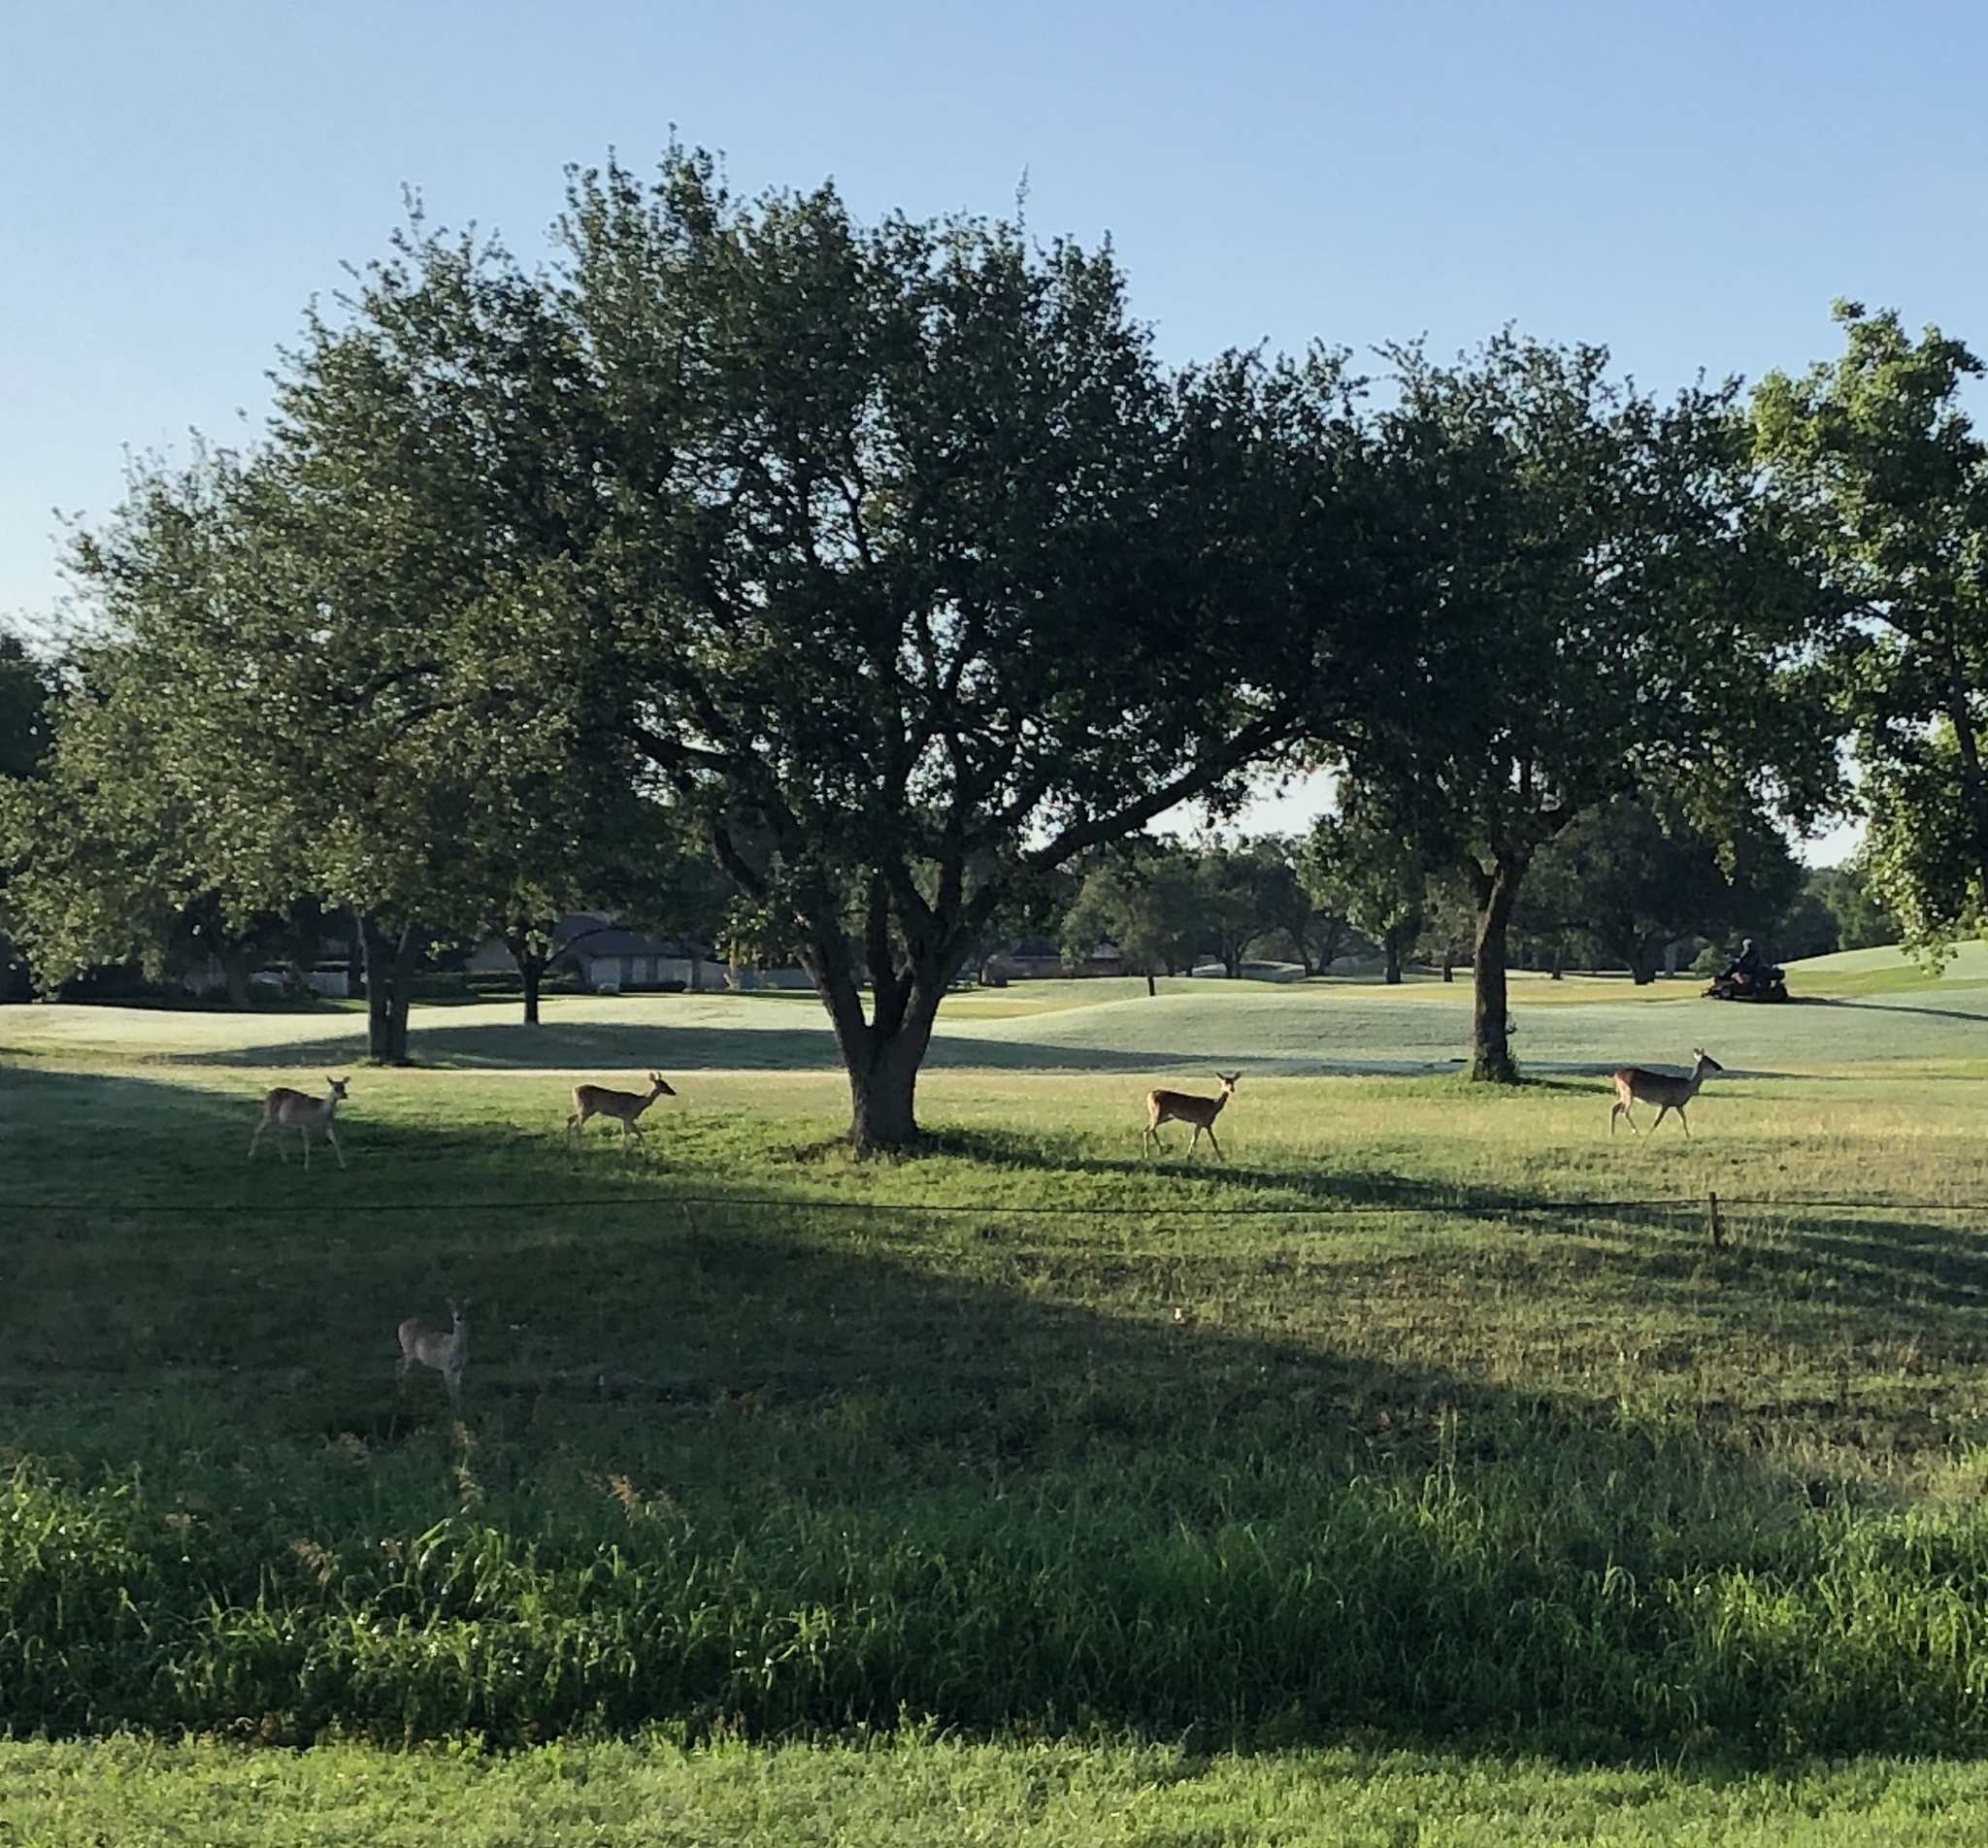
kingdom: Animalia
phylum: Chordata
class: Mammalia
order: Artiodactyla
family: Cervidae
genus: Odocoileus
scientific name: Odocoileus virginianus
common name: White-tailed deer
